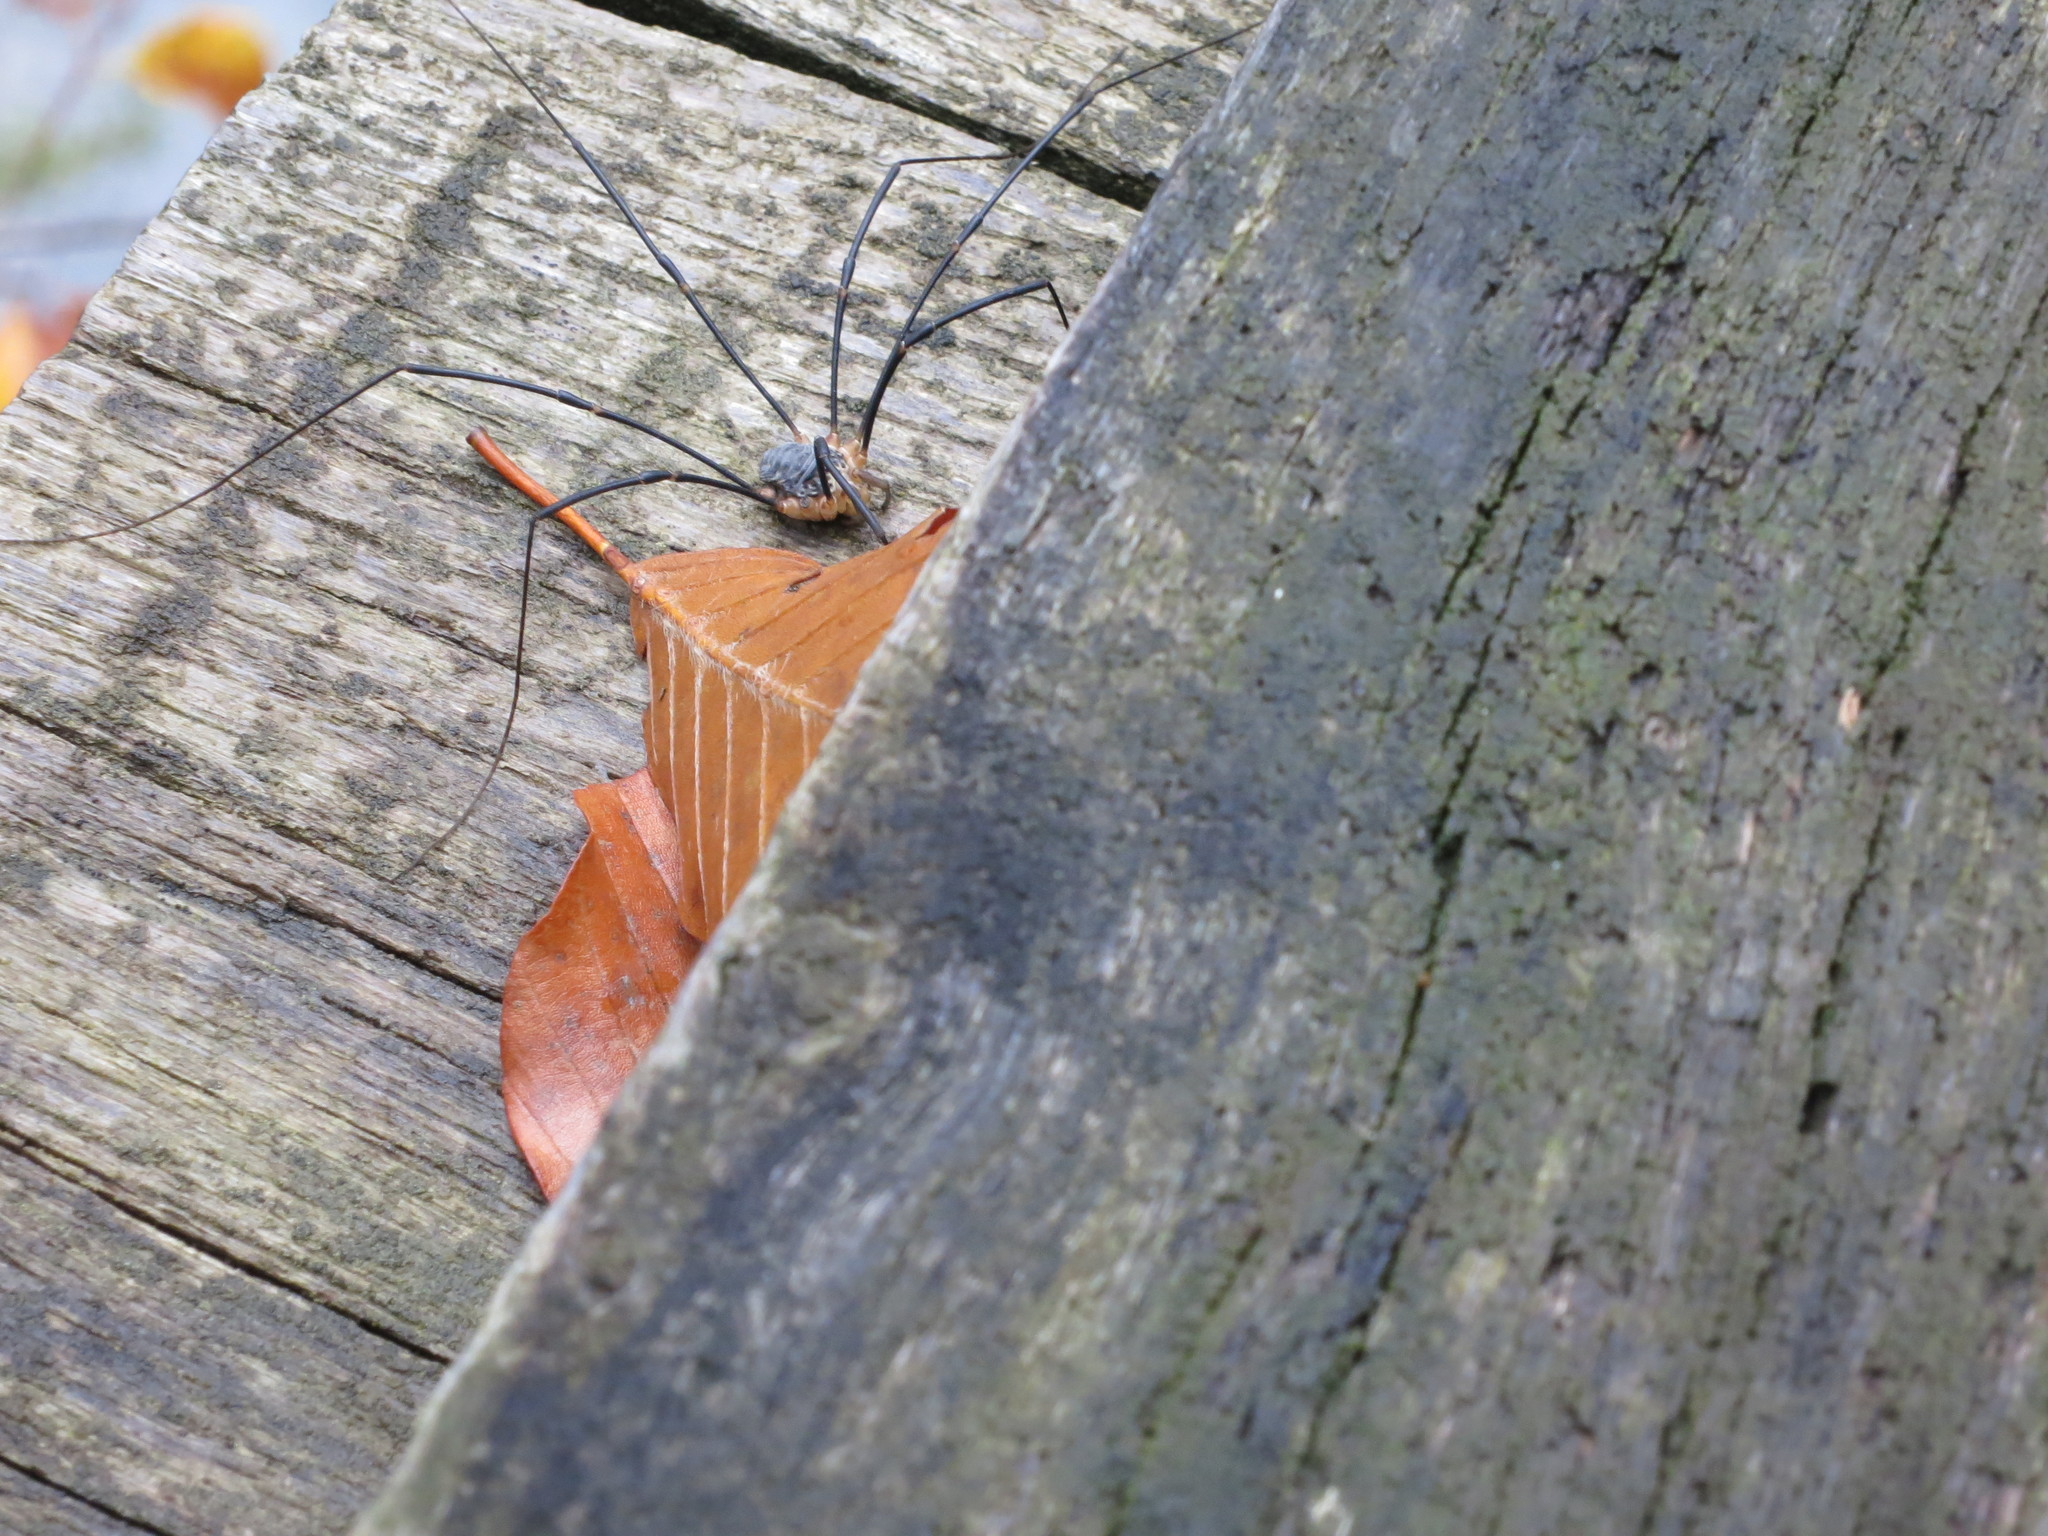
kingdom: Animalia
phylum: Arthropoda
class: Arachnida
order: Opiliones
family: Sclerosomatidae
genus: Gyas
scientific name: Gyas annulatus
